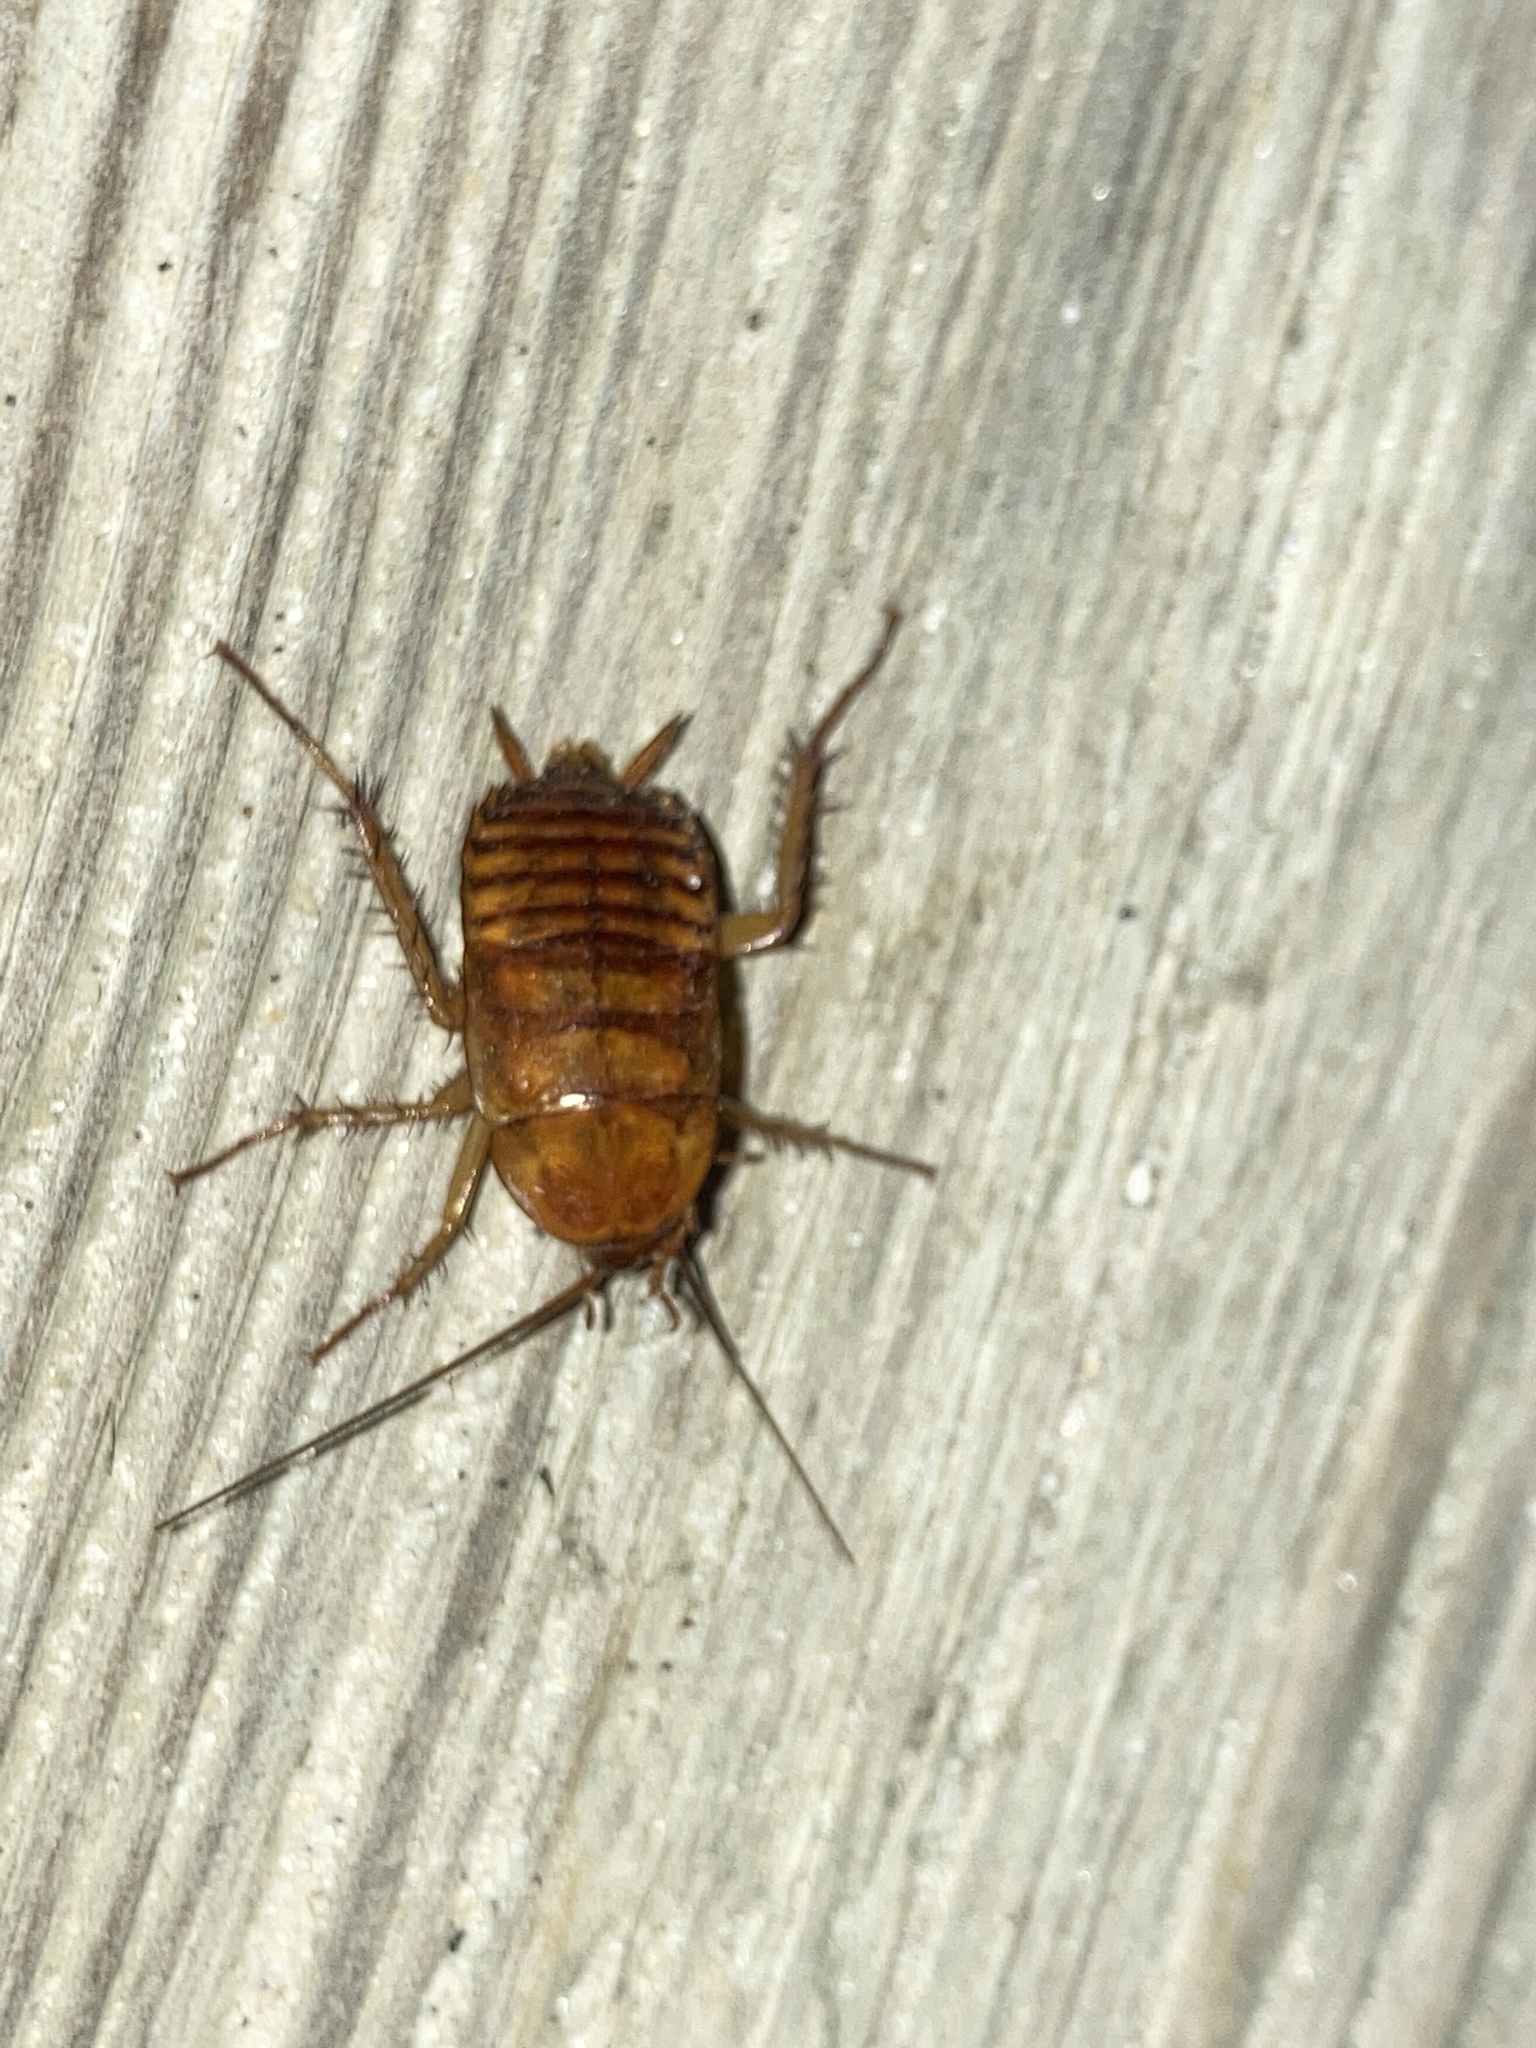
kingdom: Animalia
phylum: Arthropoda
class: Insecta
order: Blattodea
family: Blattidae
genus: Periplaneta
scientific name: Periplaneta americana
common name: American cockroach
